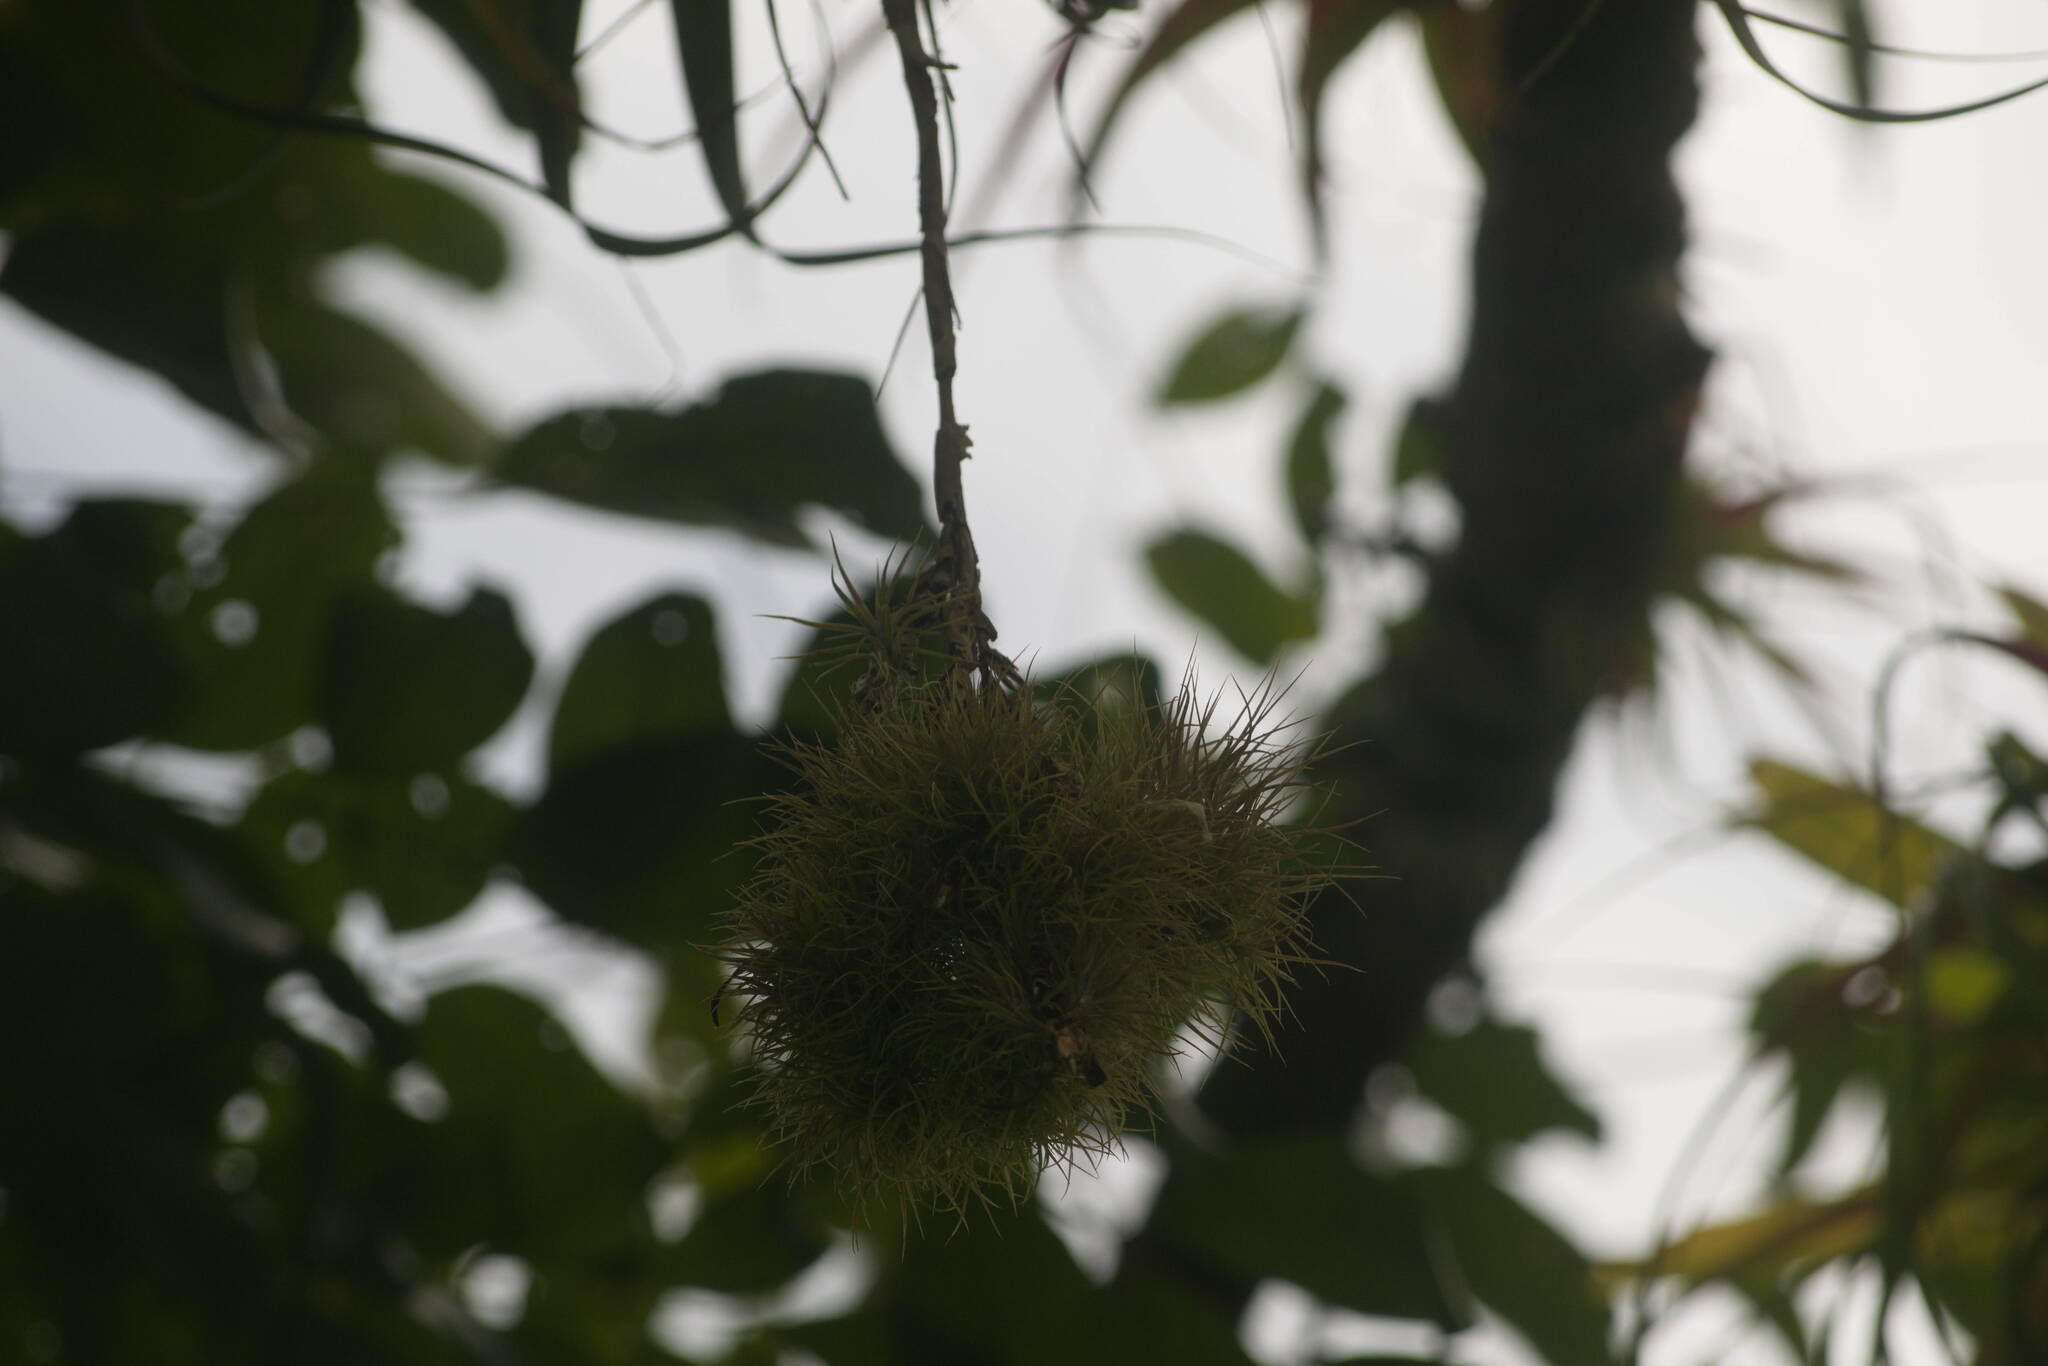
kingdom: Plantae
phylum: Tracheophyta
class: Liliopsida
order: Poales
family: Bromeliaceae
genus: Guzmania
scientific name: Guzmania monostachia
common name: West indian tufted airplant
